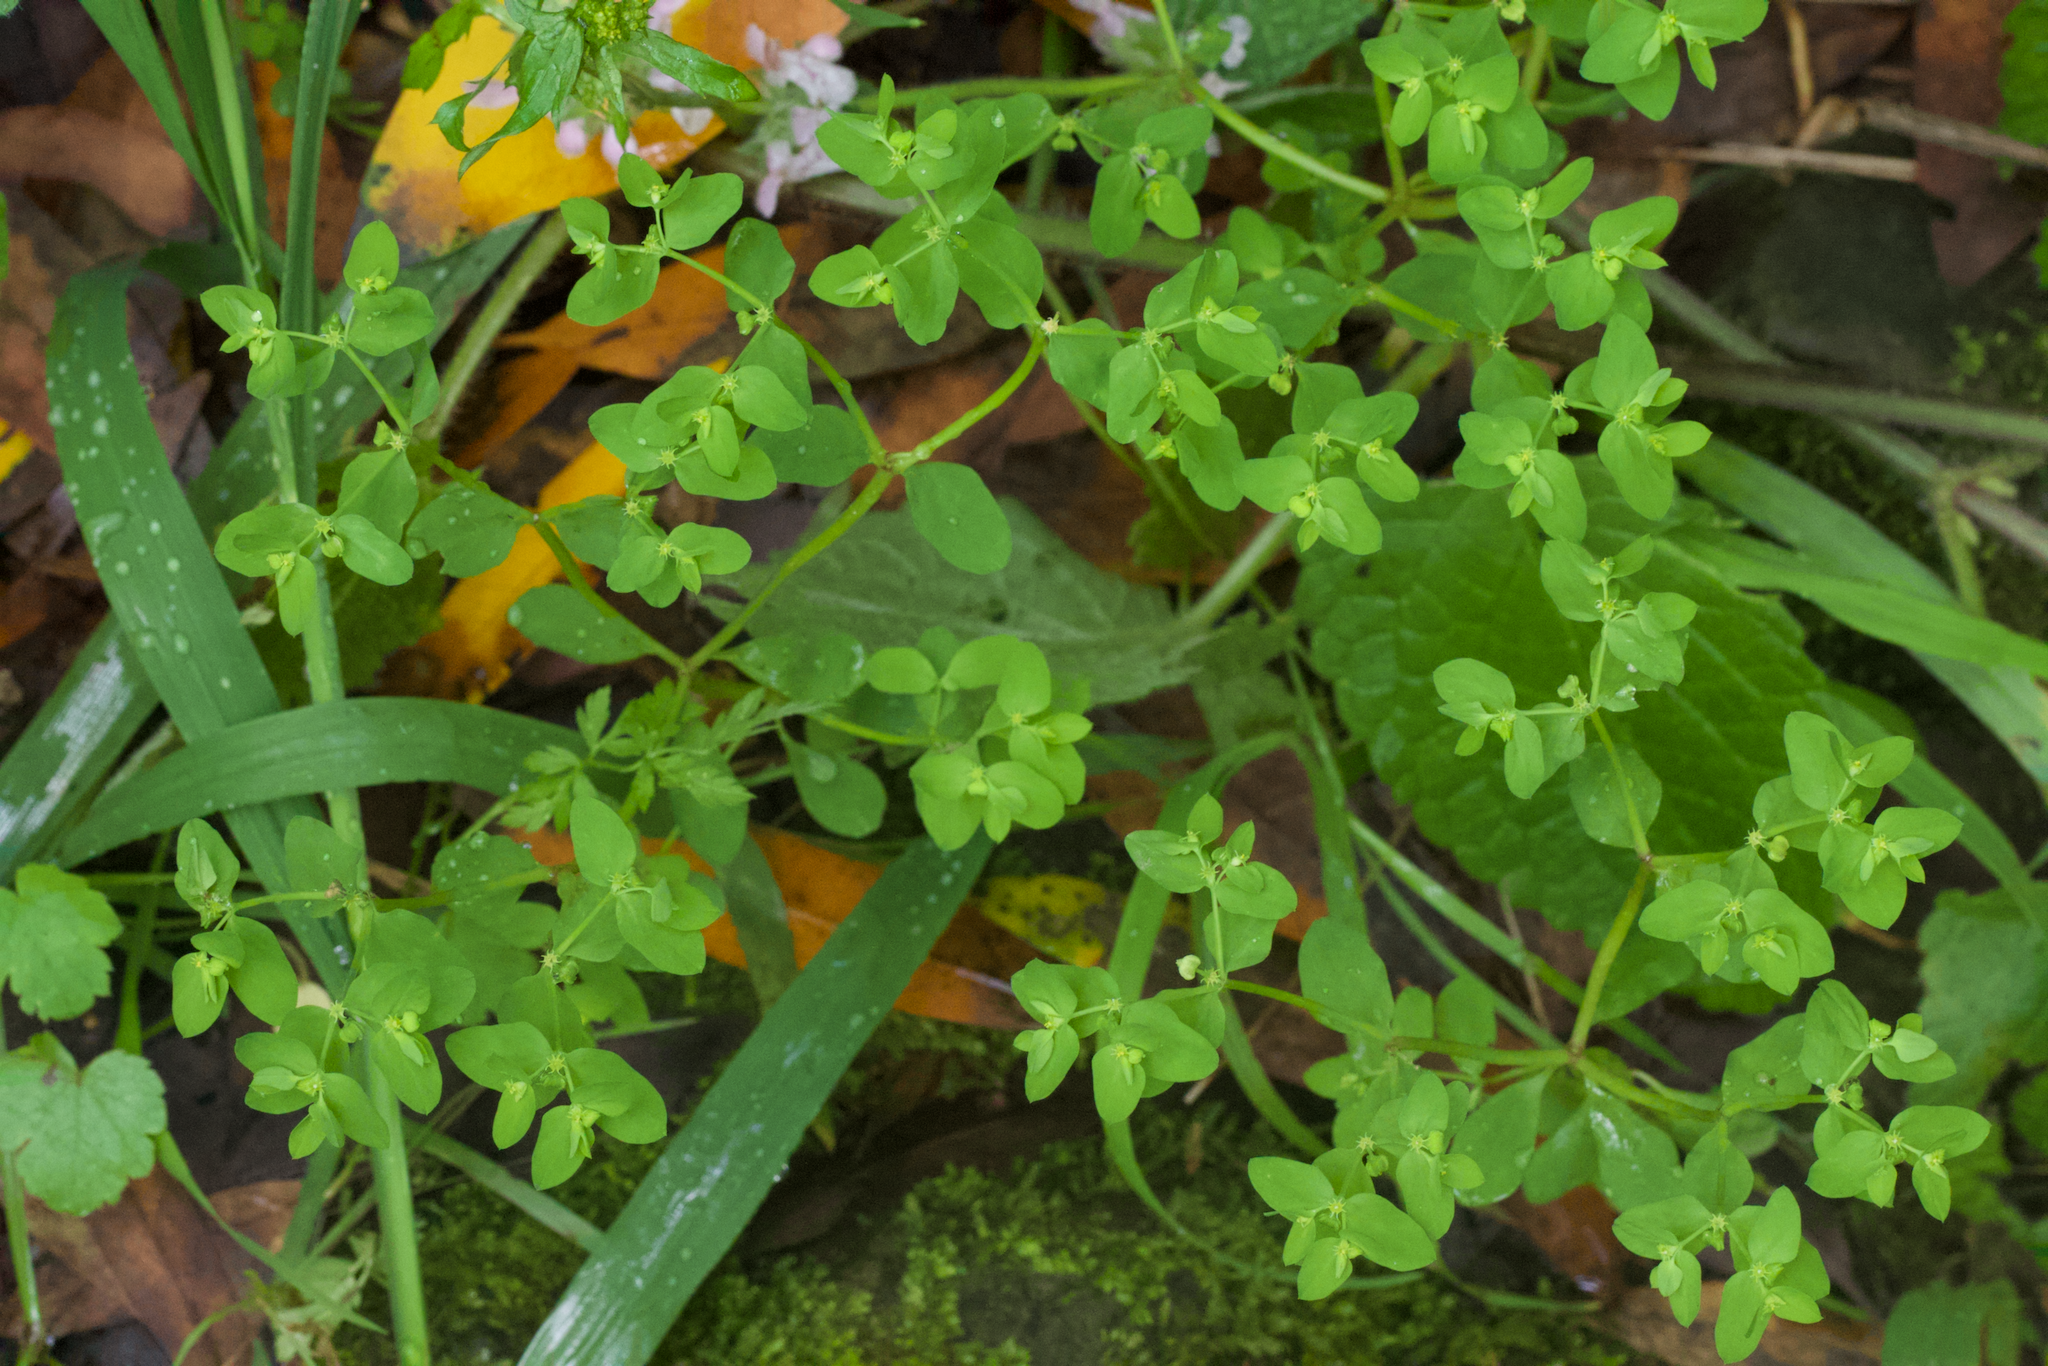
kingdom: Plantae
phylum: Tracheophyta
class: Magnoliopsida
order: Malpighiales
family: Euphorbiaceae
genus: Euphorbia
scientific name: Euphorbia peplus
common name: Petty spurge
